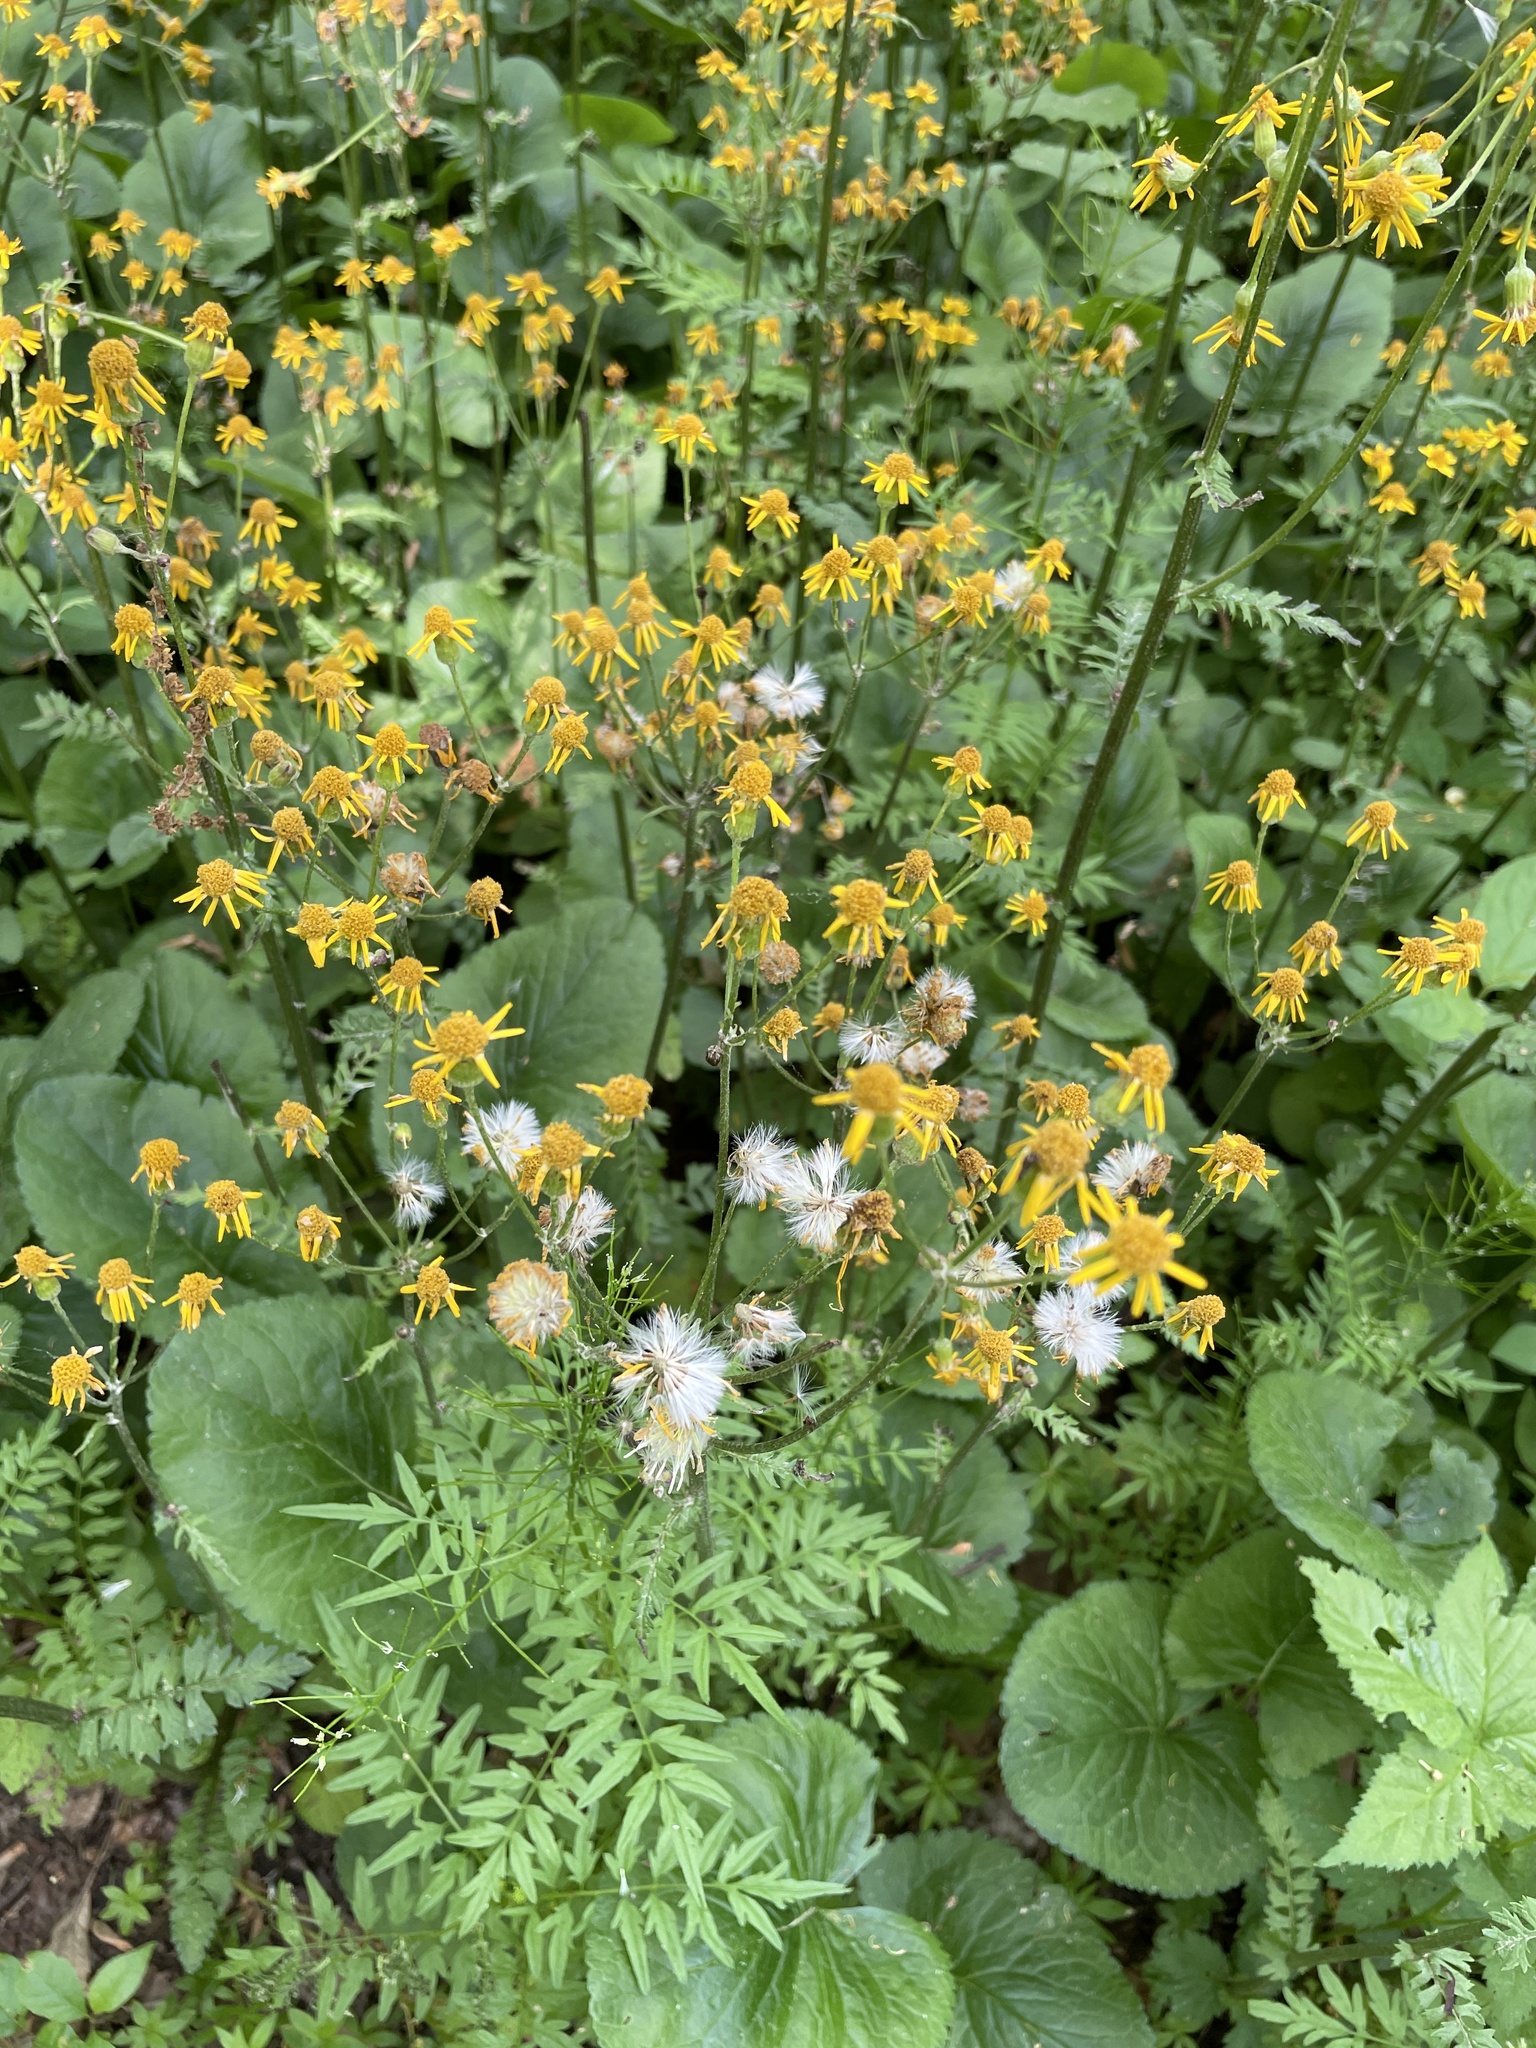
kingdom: Plantae
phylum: Tracheophyta
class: Magnoliopsida
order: Asterales
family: Asteraceae
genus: Packera
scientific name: Packera aurea
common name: Golden groundsel
